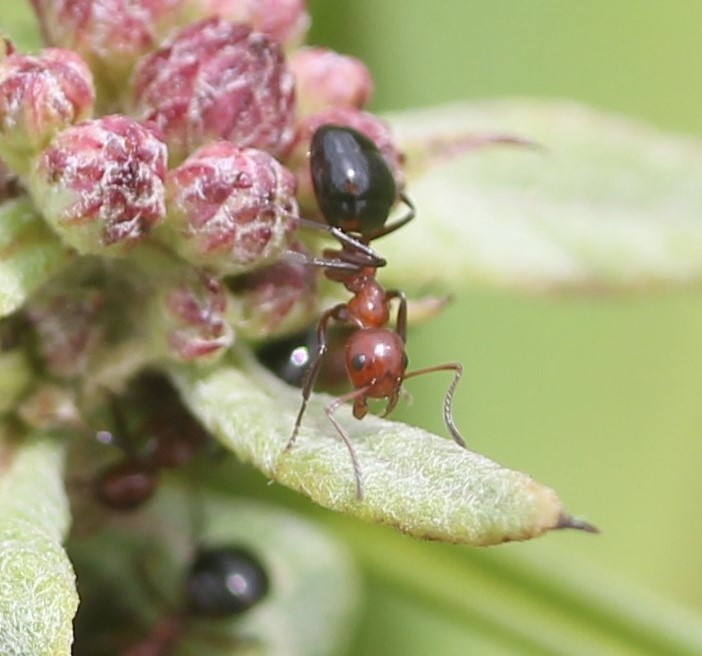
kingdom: Animalia
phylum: Arthropoda
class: Insecta
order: Hymenoptera
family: Formicidae
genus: Dolichoderus
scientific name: Dolichoderus mariae
